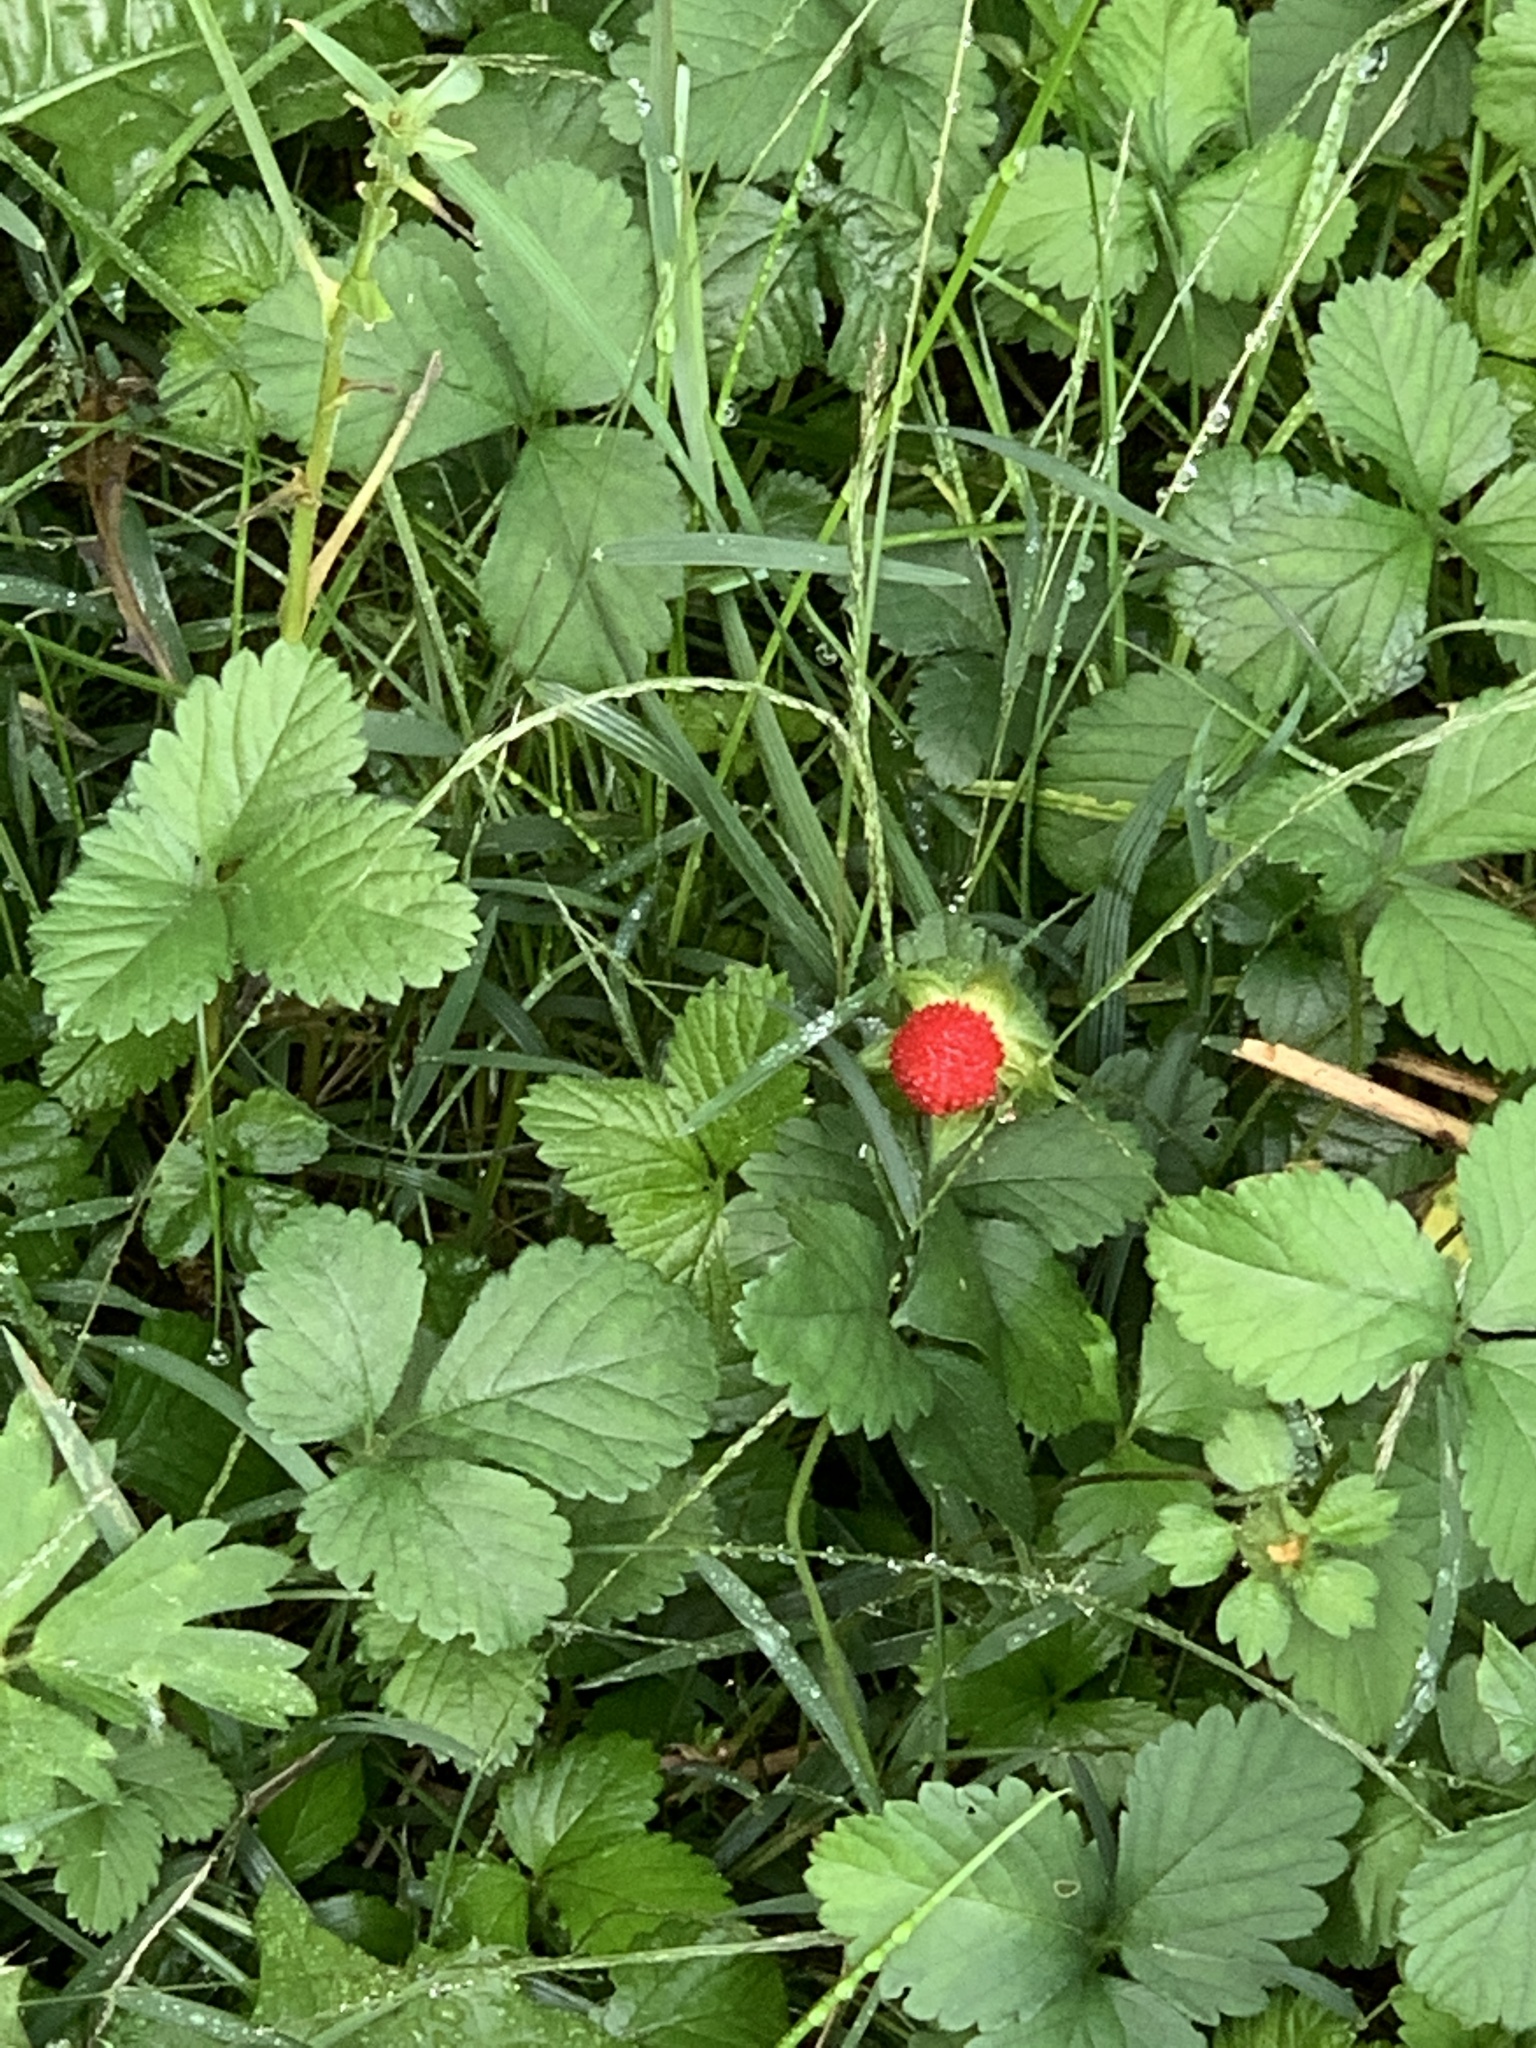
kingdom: Plantae
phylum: Tracheophyta
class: Magnoliopsida
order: Rosales
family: Rosaceae
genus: Potentilla
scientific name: Potentilla indica
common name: Yellow-flowered strawberry
